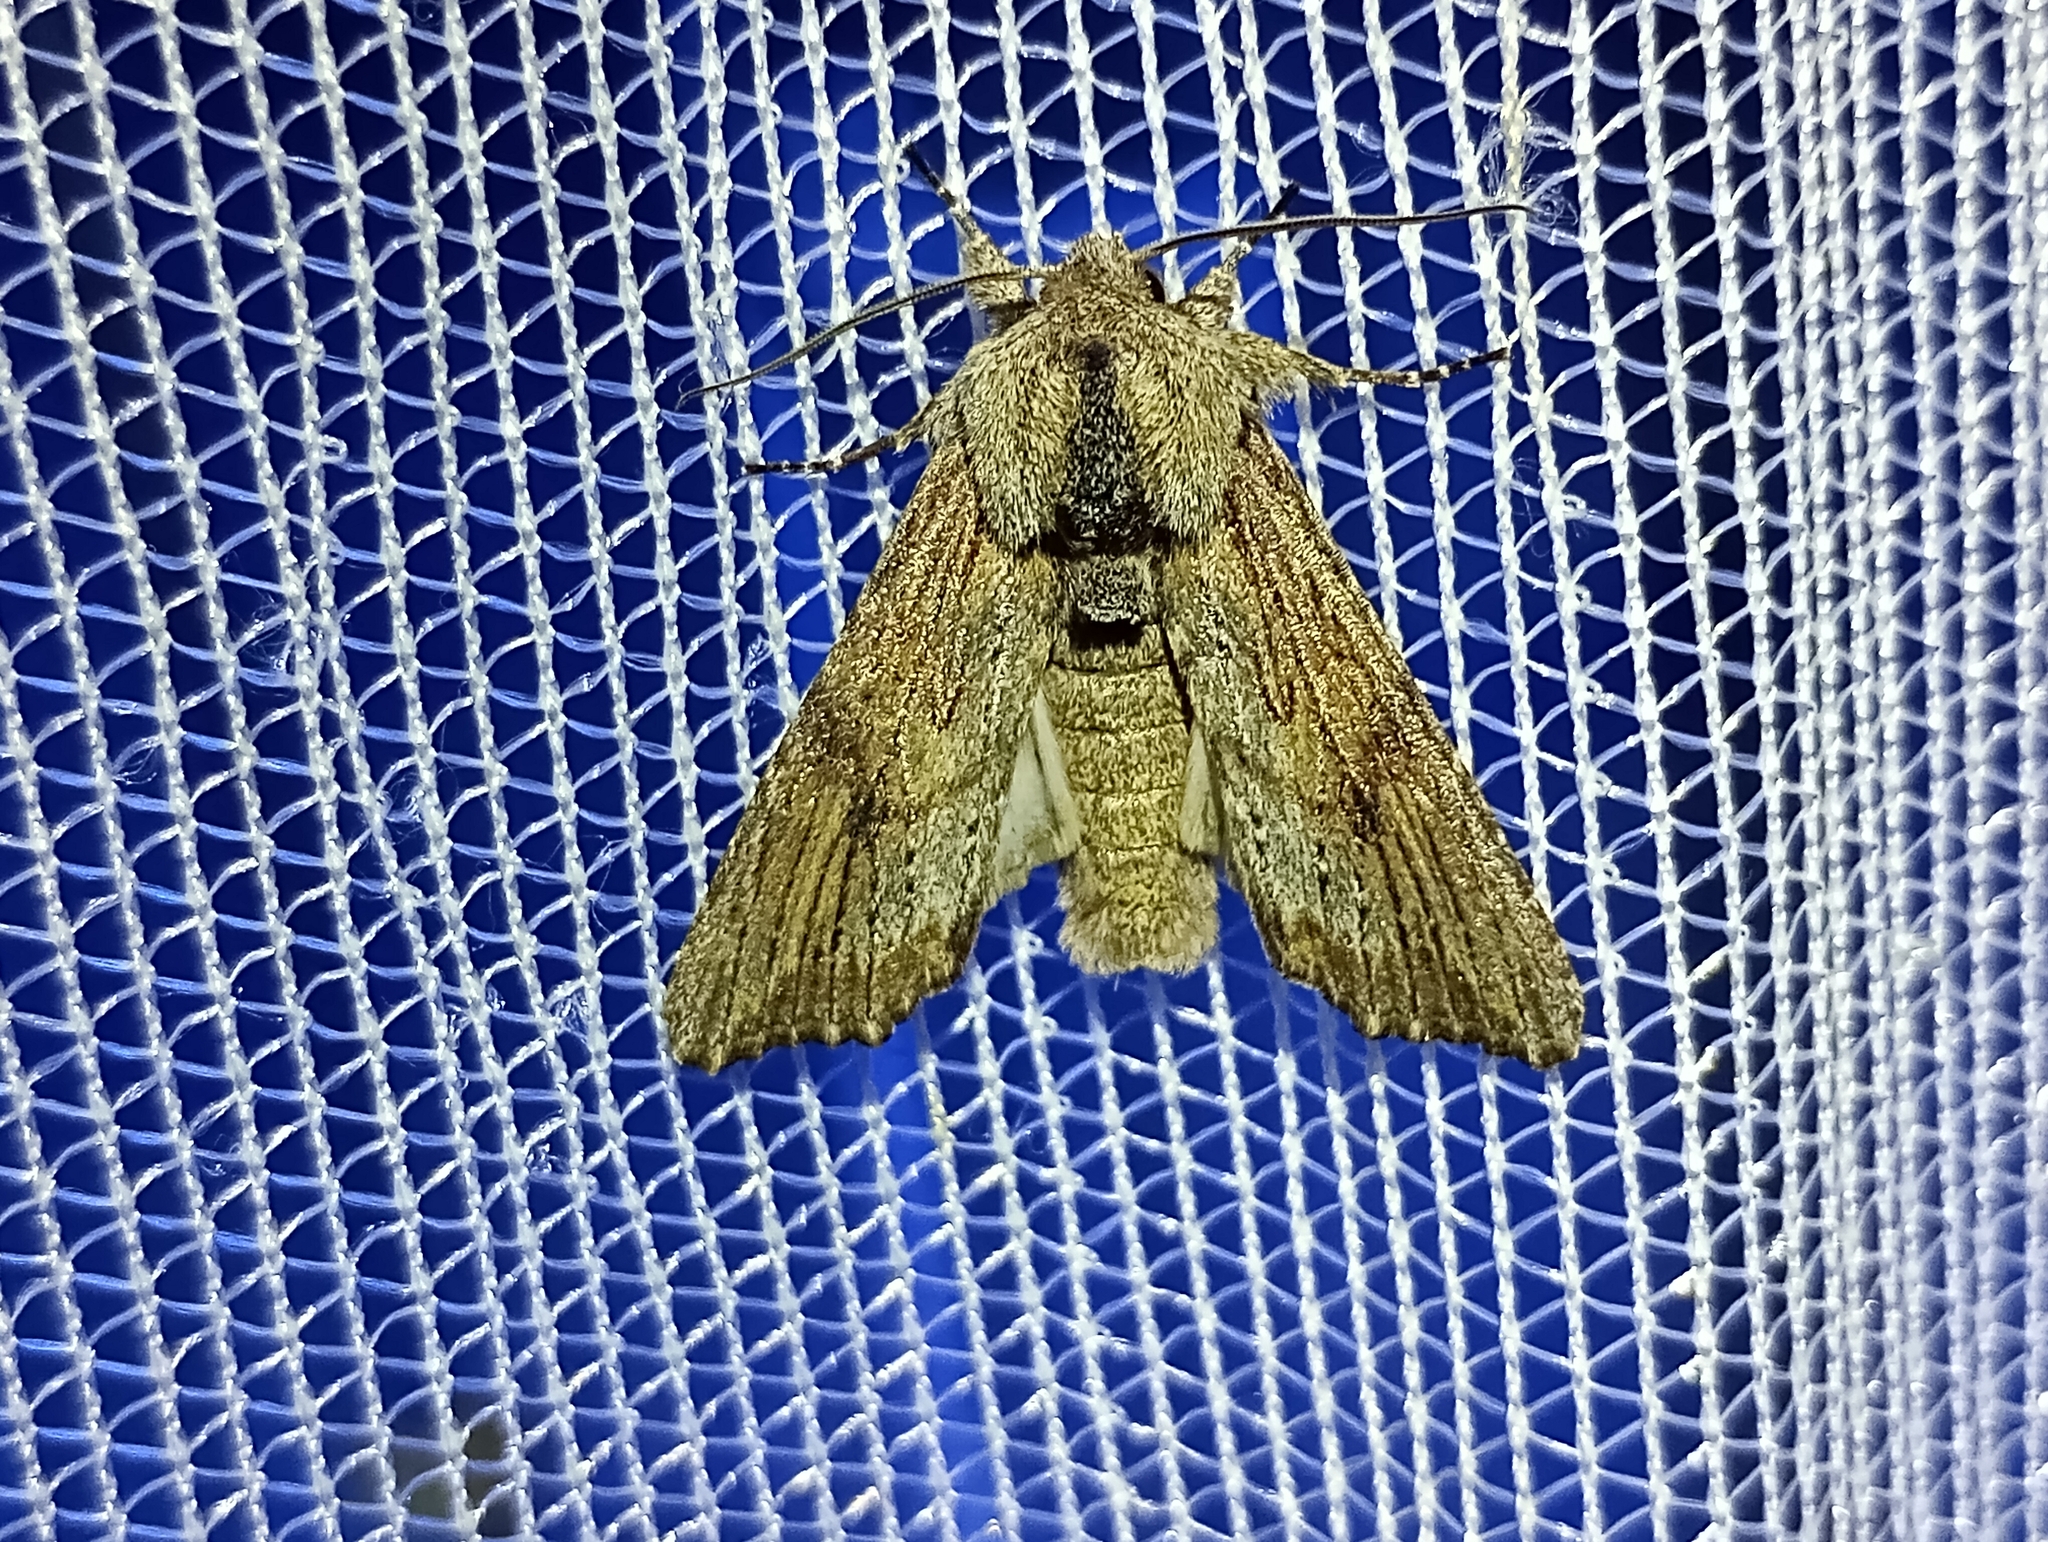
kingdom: Animalia
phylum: Arthropoda
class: Insecta
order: Lepidoptera
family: Noctuidae
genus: Egira
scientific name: Egira conspicillaris
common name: Silver cloud
